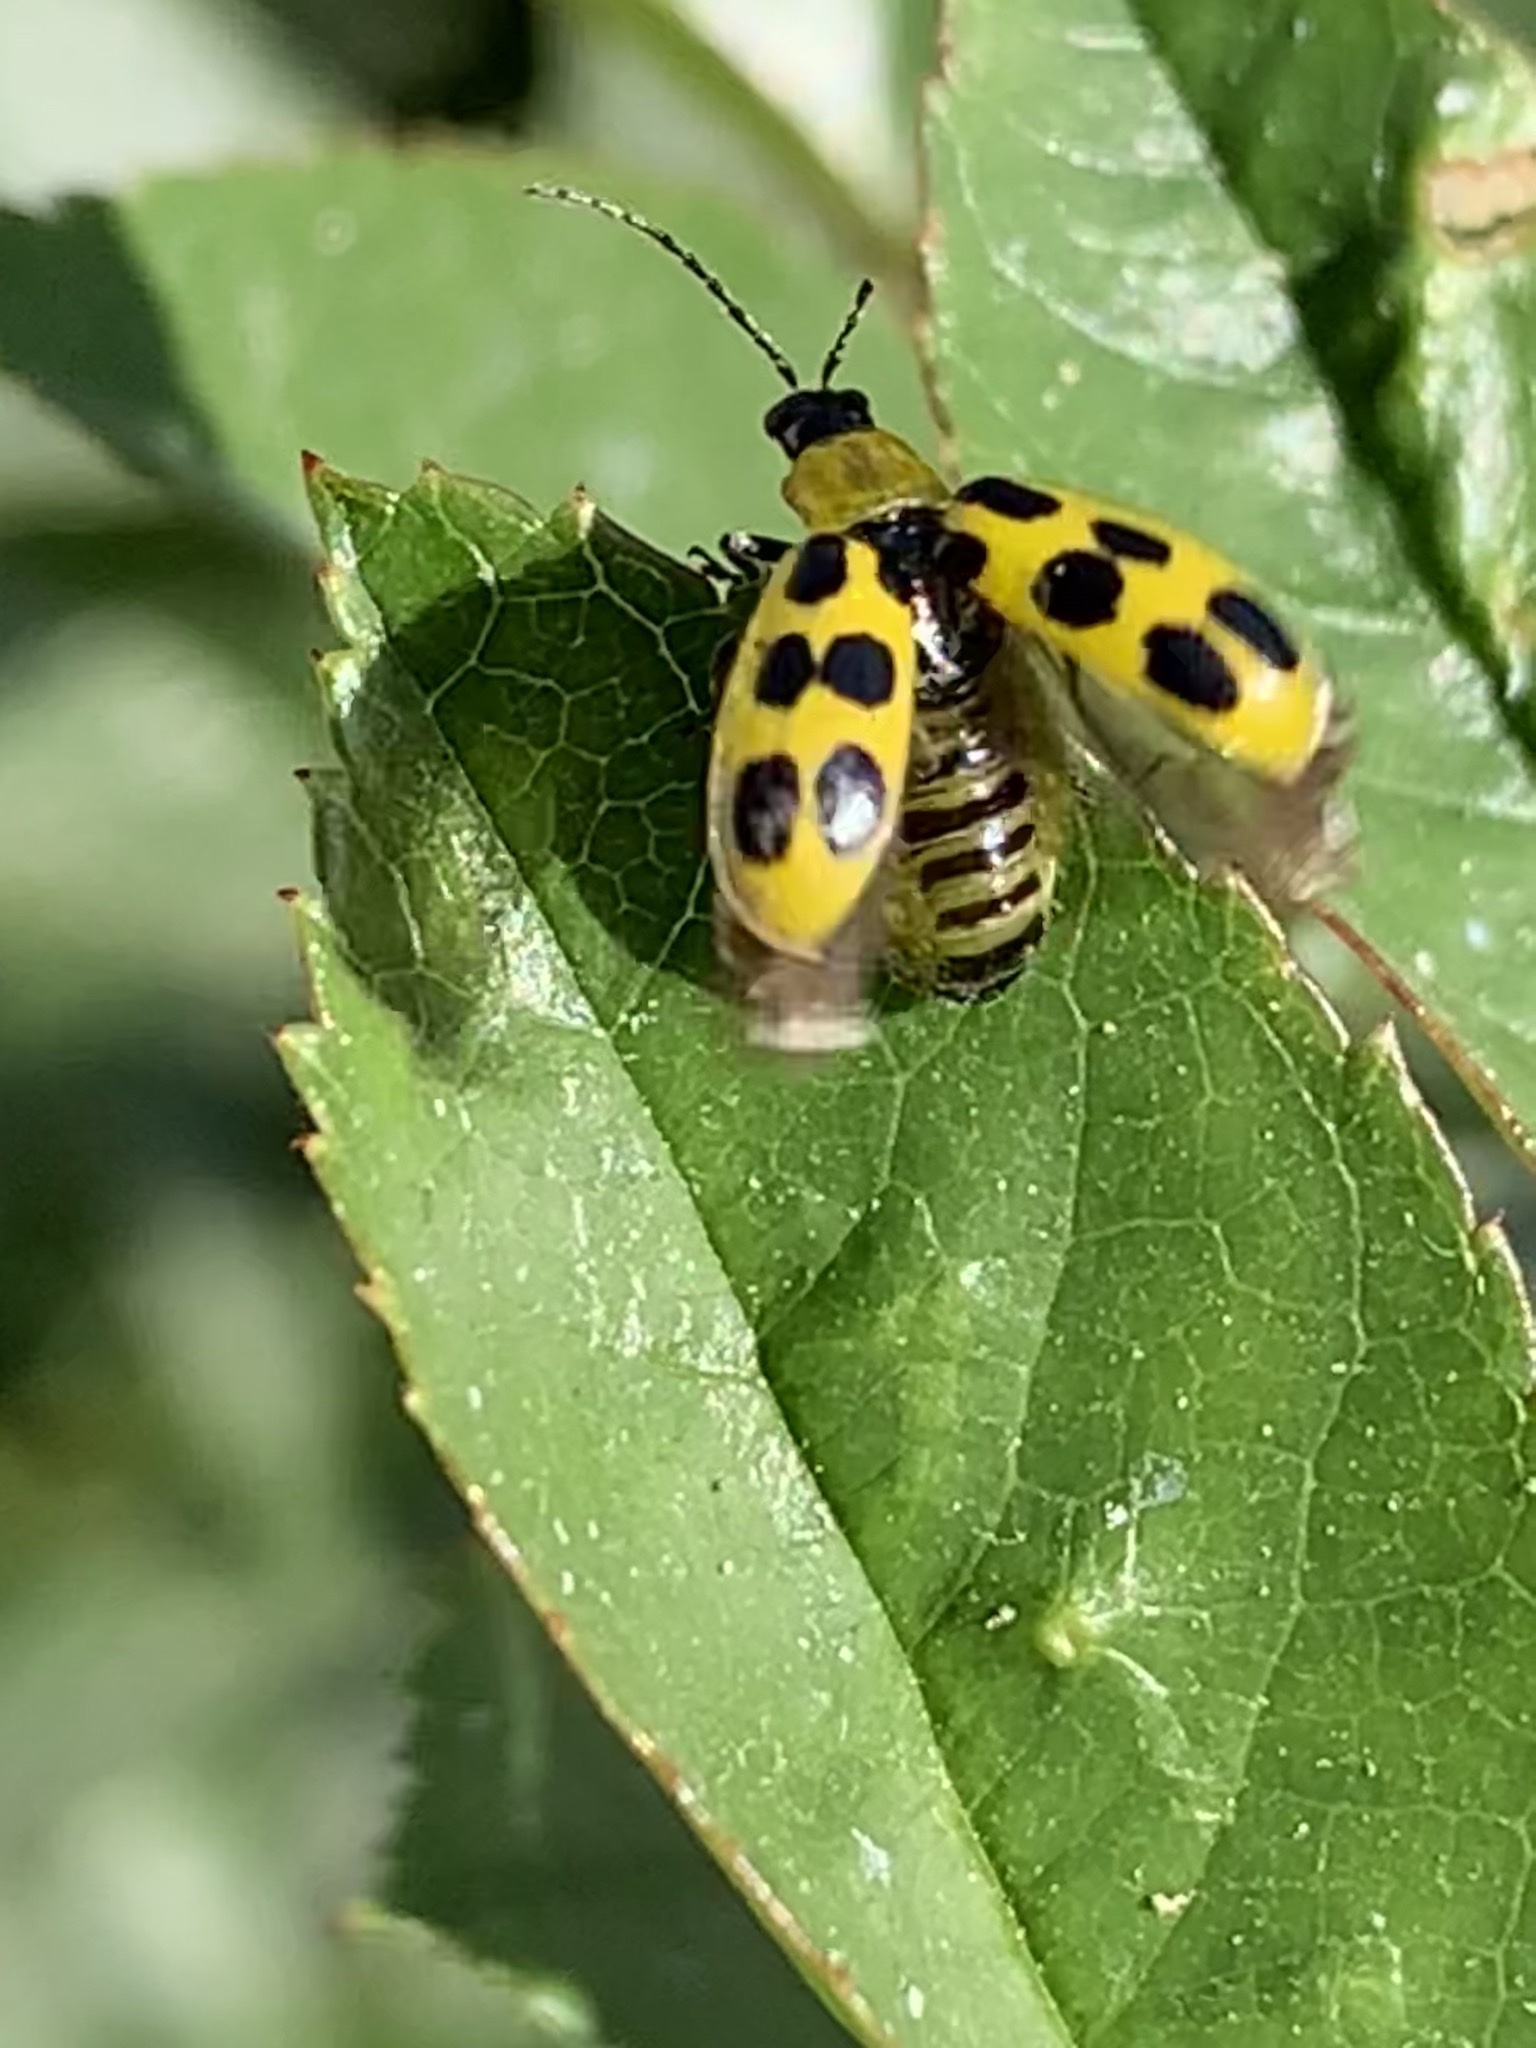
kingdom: Animalia
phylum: Arthropoda
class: Insecta
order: Coleoptera
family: Chrysomelidae
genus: Diabrotica
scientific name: Diabrotica undecimpunctata
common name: Spotted cucumber beetle
